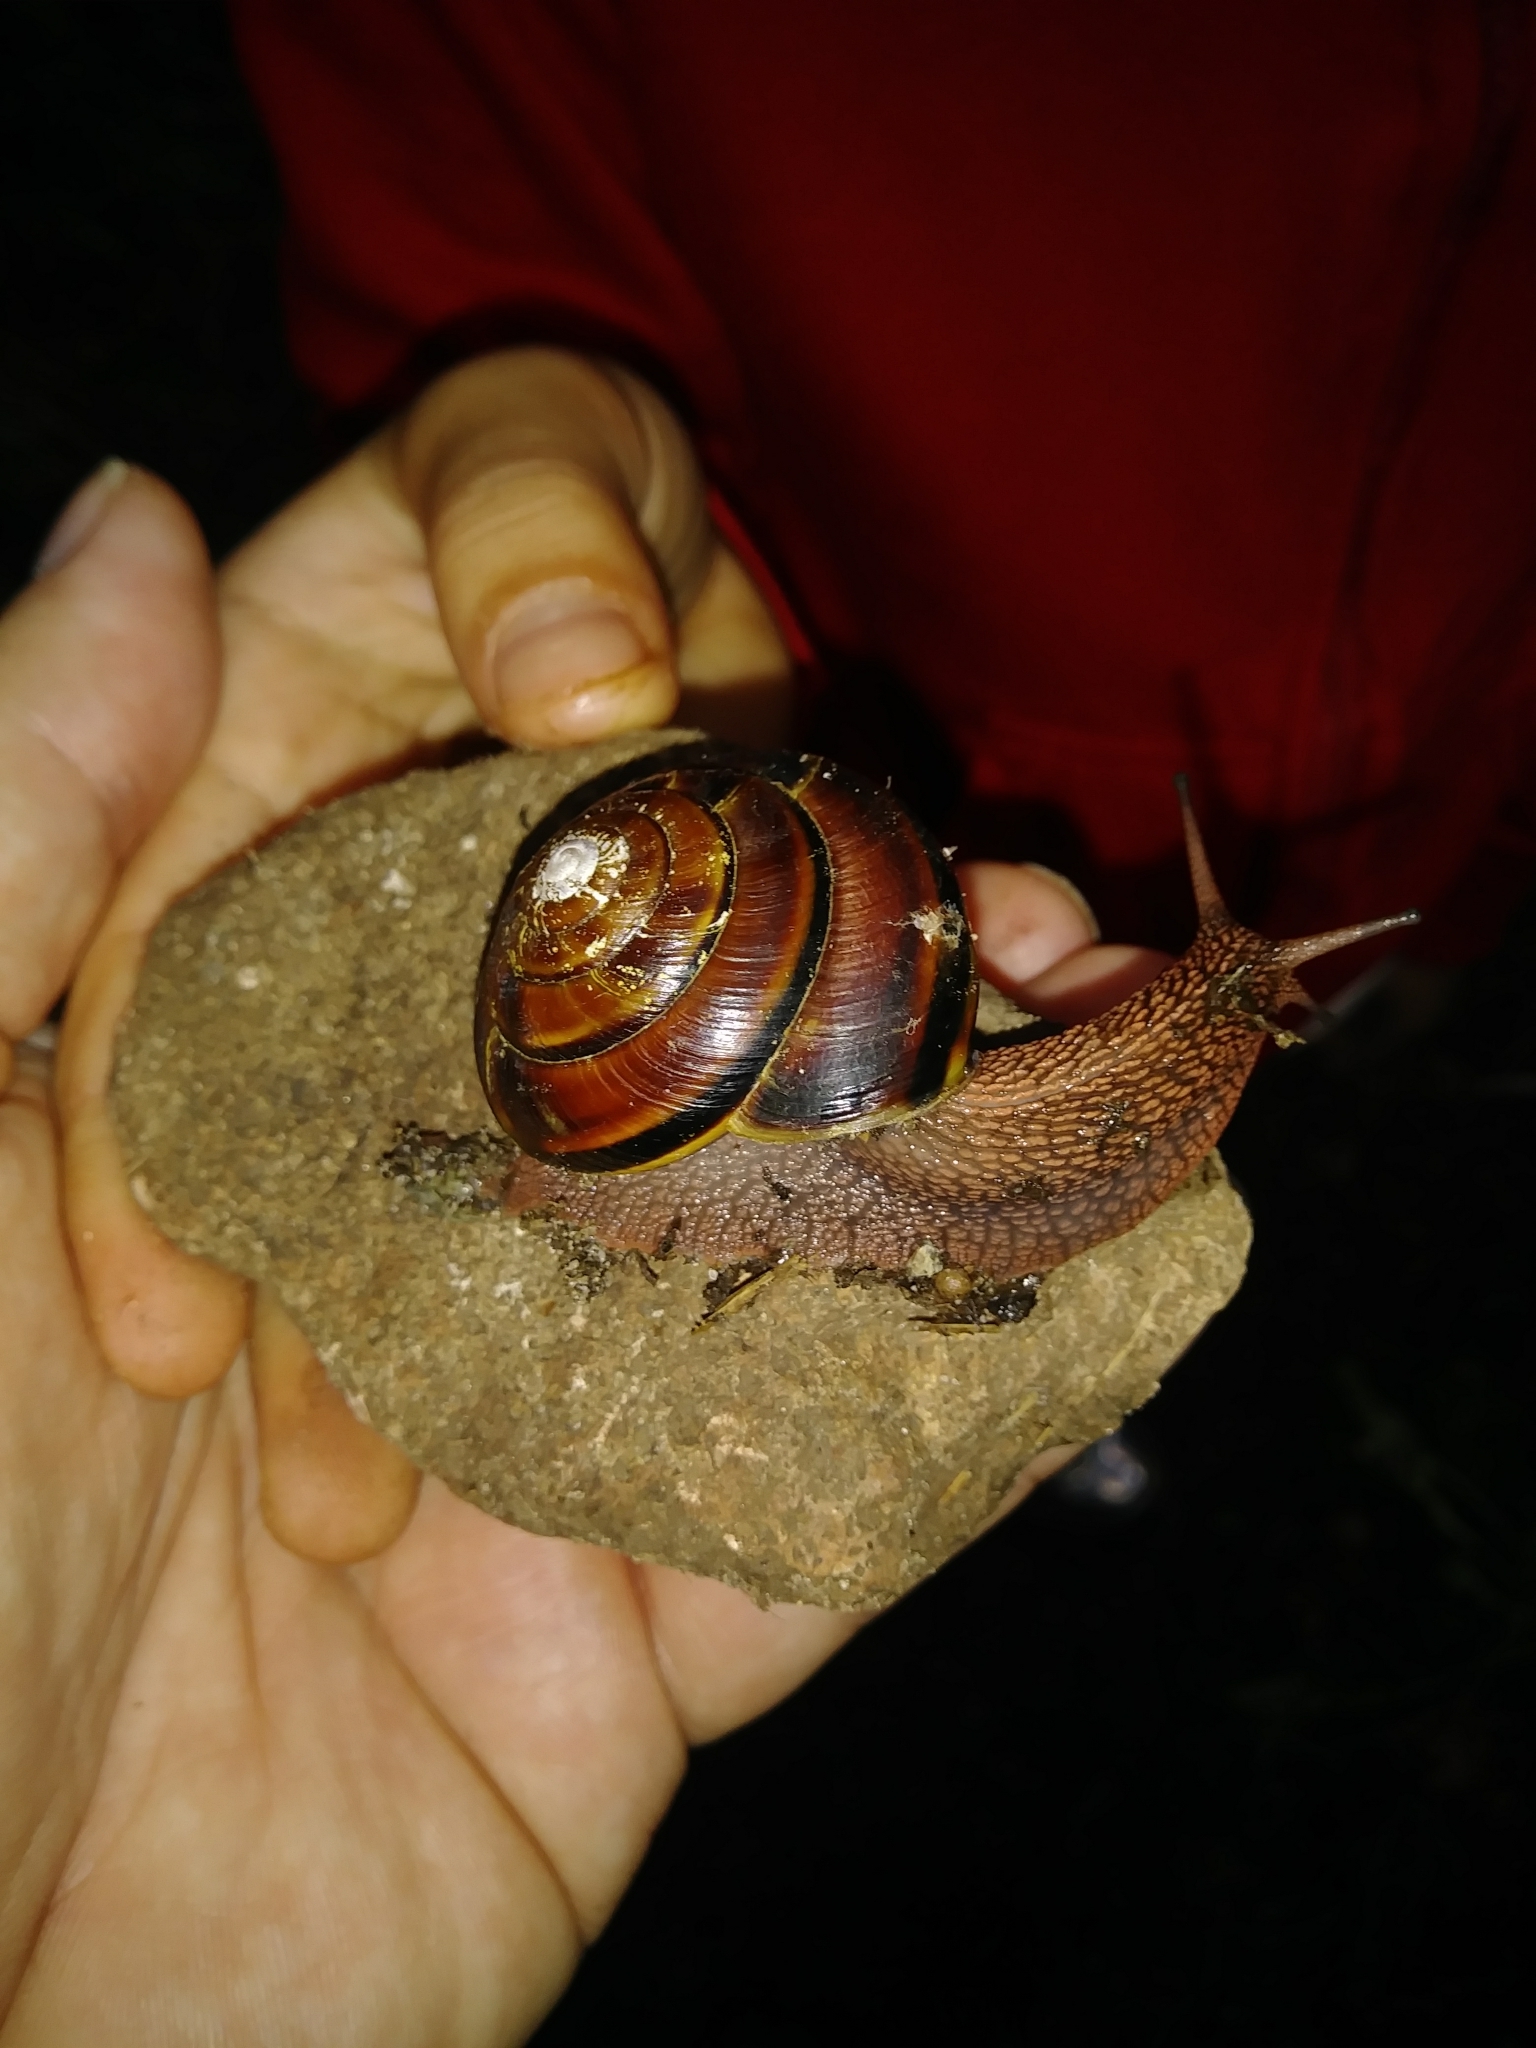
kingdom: Animalia
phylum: Mollusca
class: Gastropoda
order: Stylommatophora
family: Xanthonychidae
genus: Monadenia
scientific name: Monadenia fidelis
